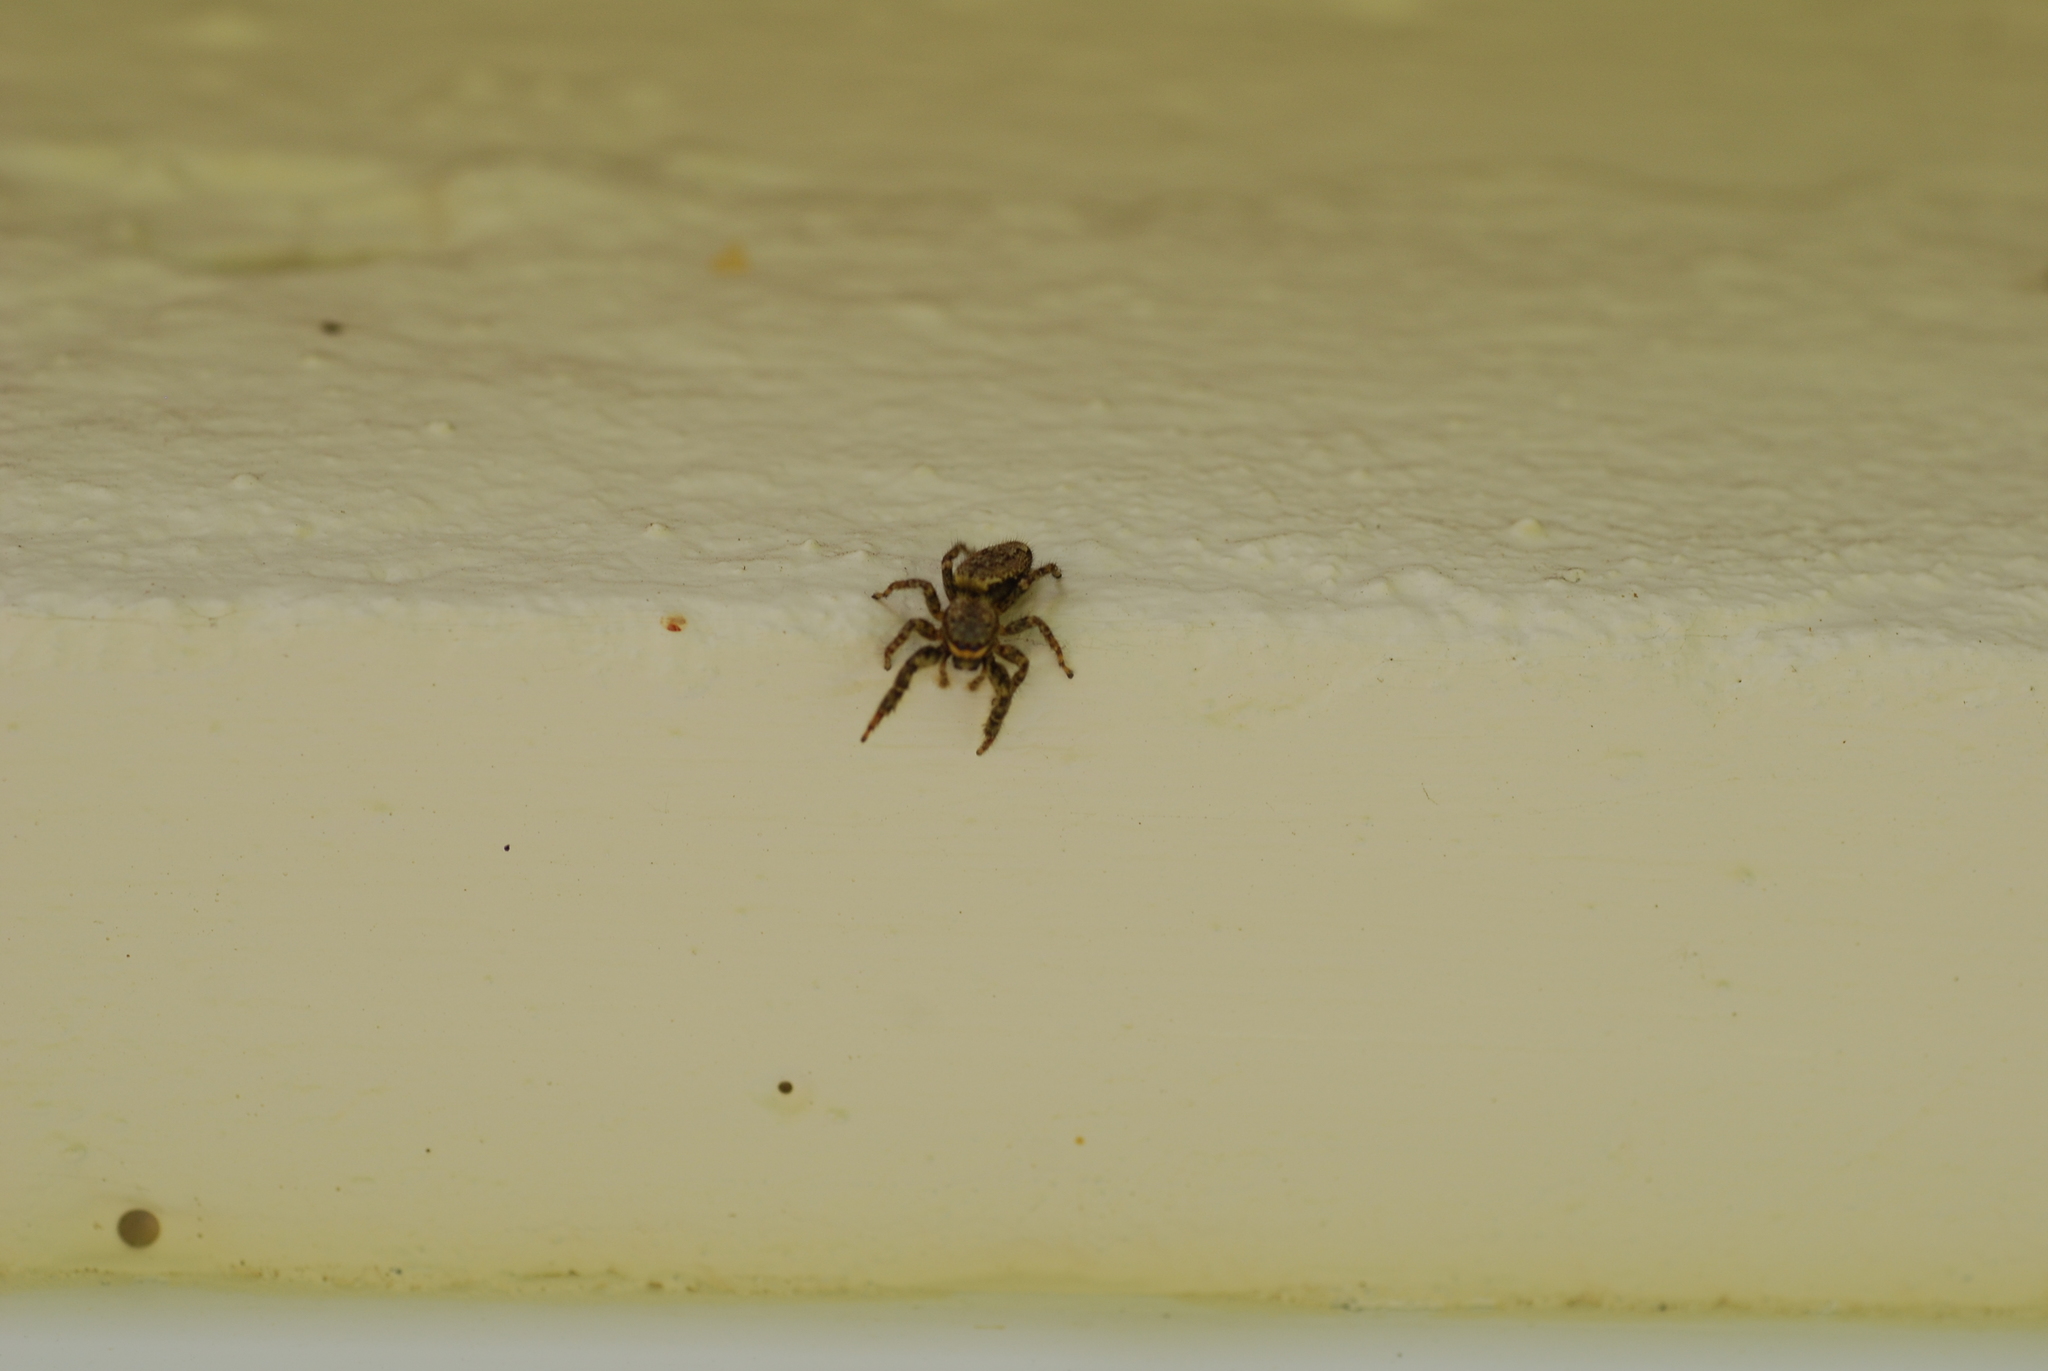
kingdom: Animalia
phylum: Arthropoda
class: Arachnida
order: Araneae
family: Salticidae
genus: Marpissa
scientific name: Marpissa muscosa
